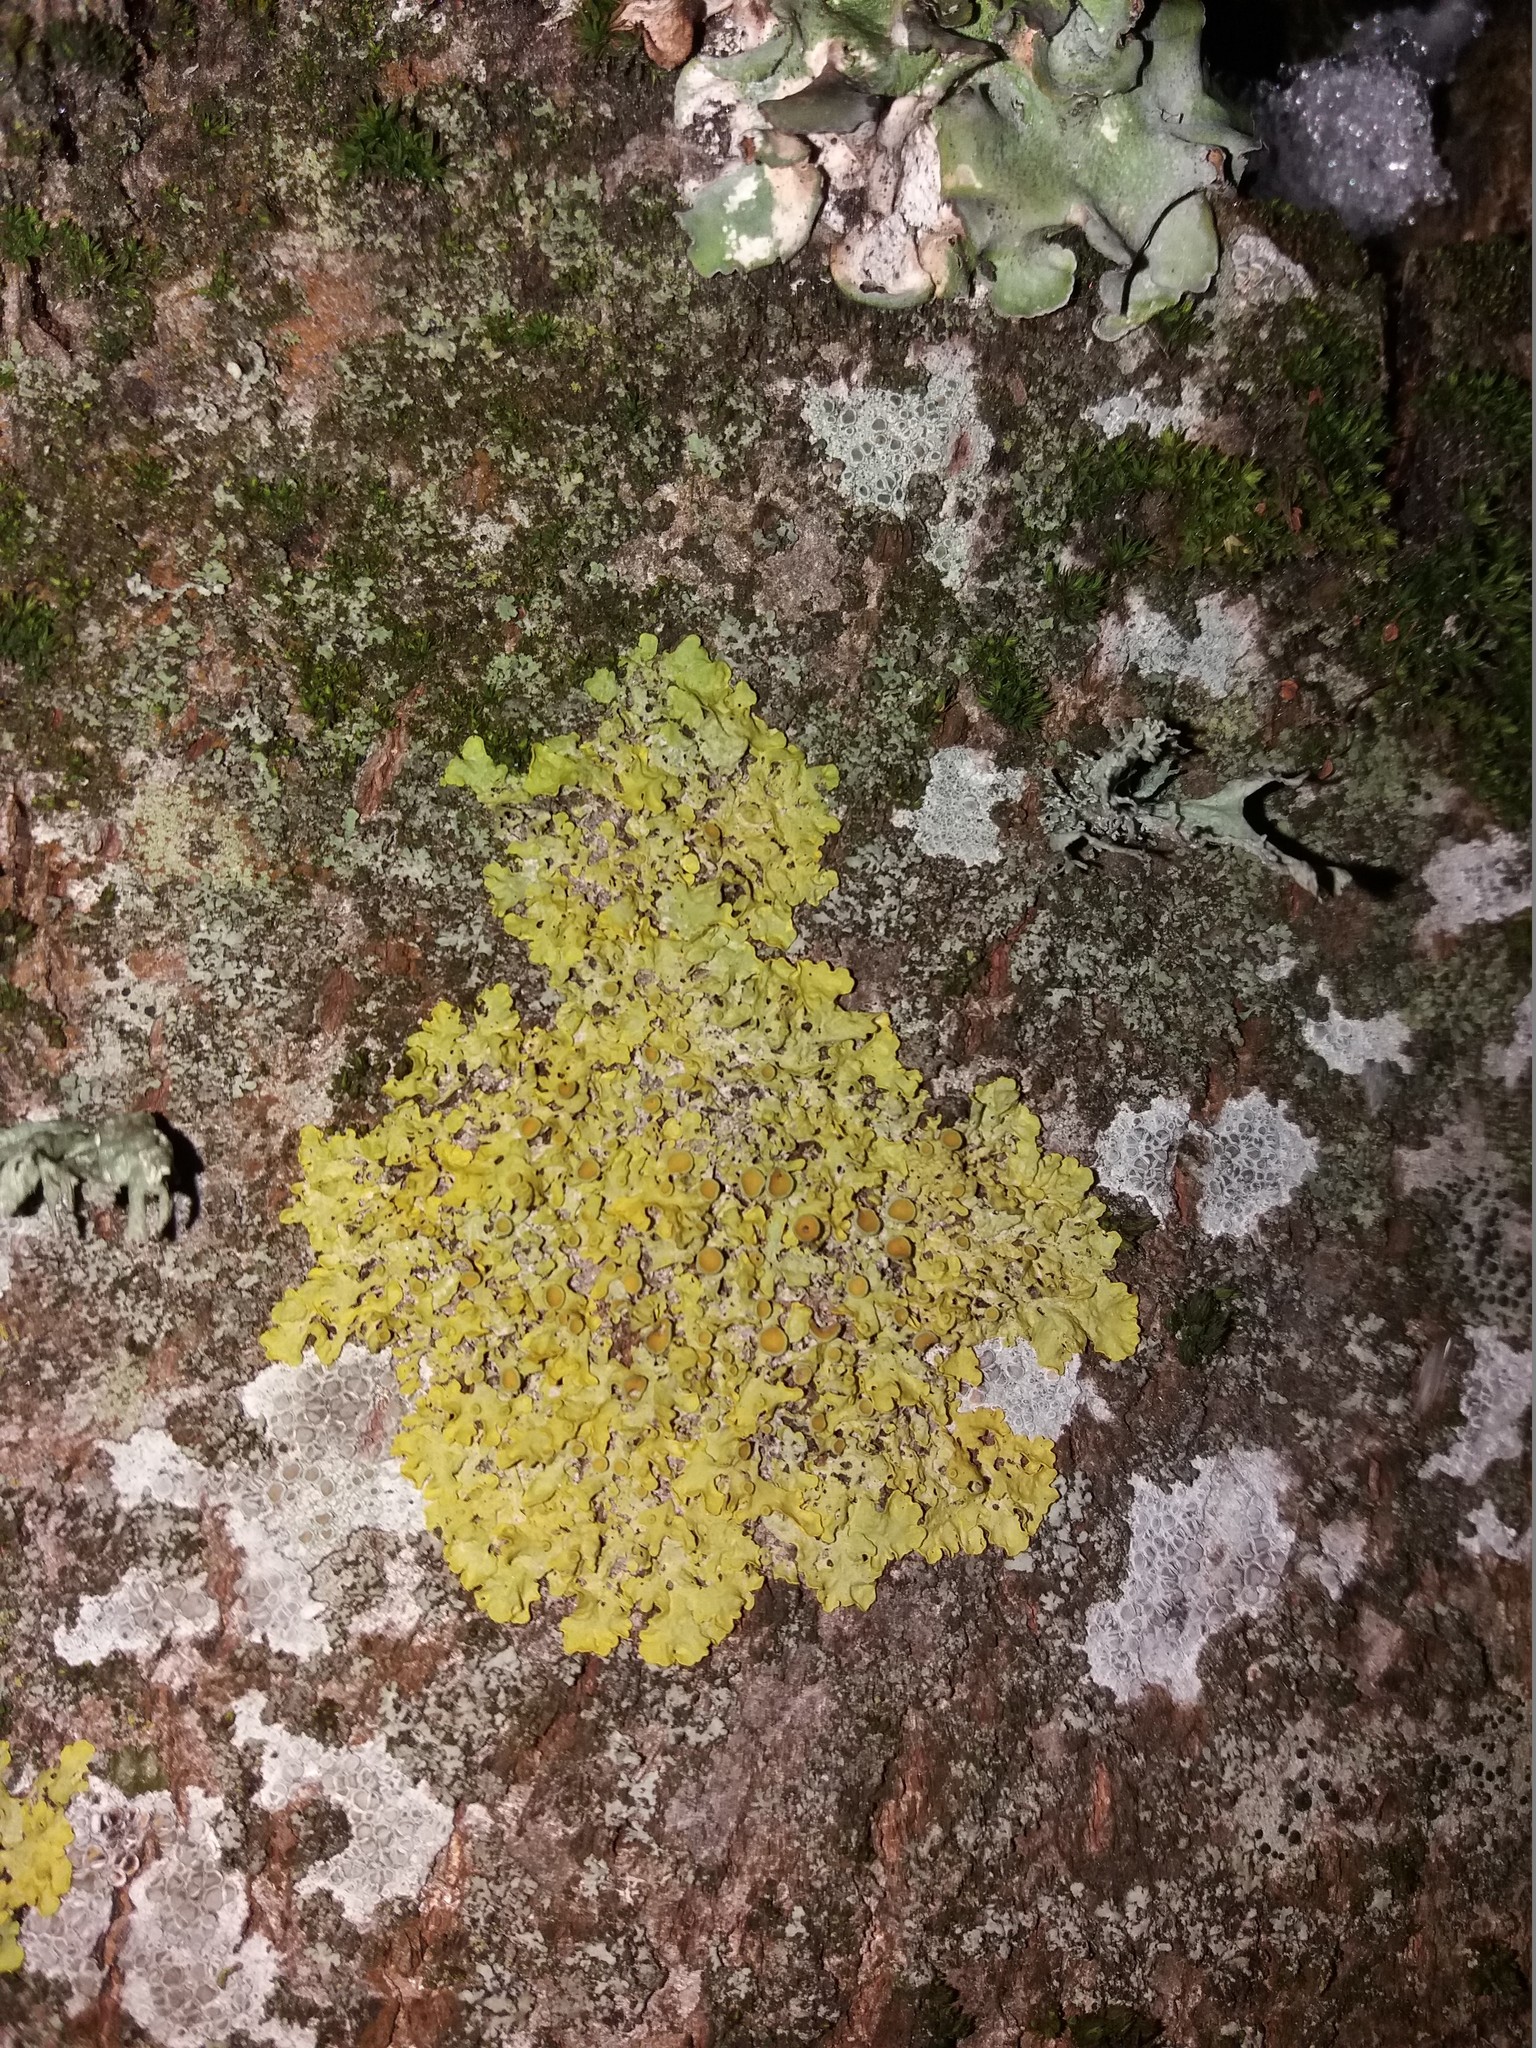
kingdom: Fungi
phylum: Ascomycota
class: Lecanoromycetes
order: Teloschistales
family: Teloschistaceae
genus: Xanthoria
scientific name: Xanthoria parietina
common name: Common orange lichen
